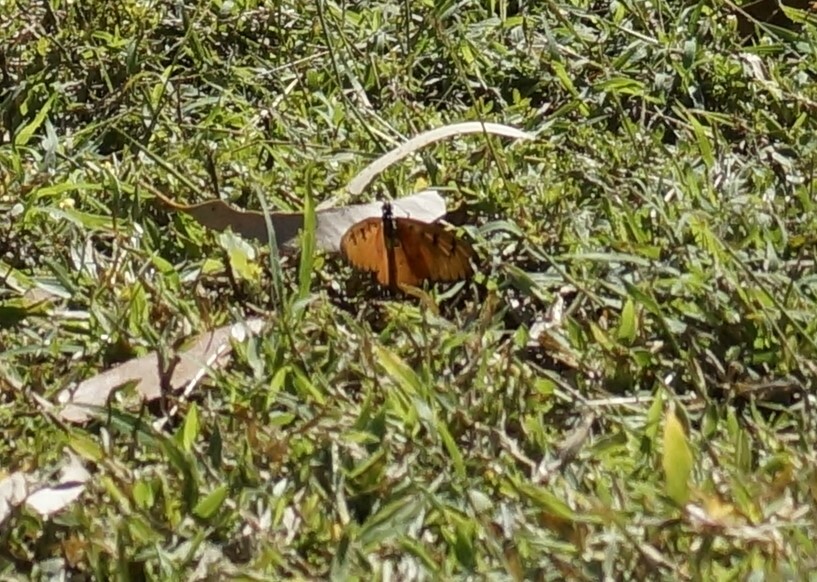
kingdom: Animalia
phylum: Arthropoda
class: Insecta
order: Lepidoptera
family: Nymphalidae
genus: Acraea
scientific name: Acraea terpsicore
